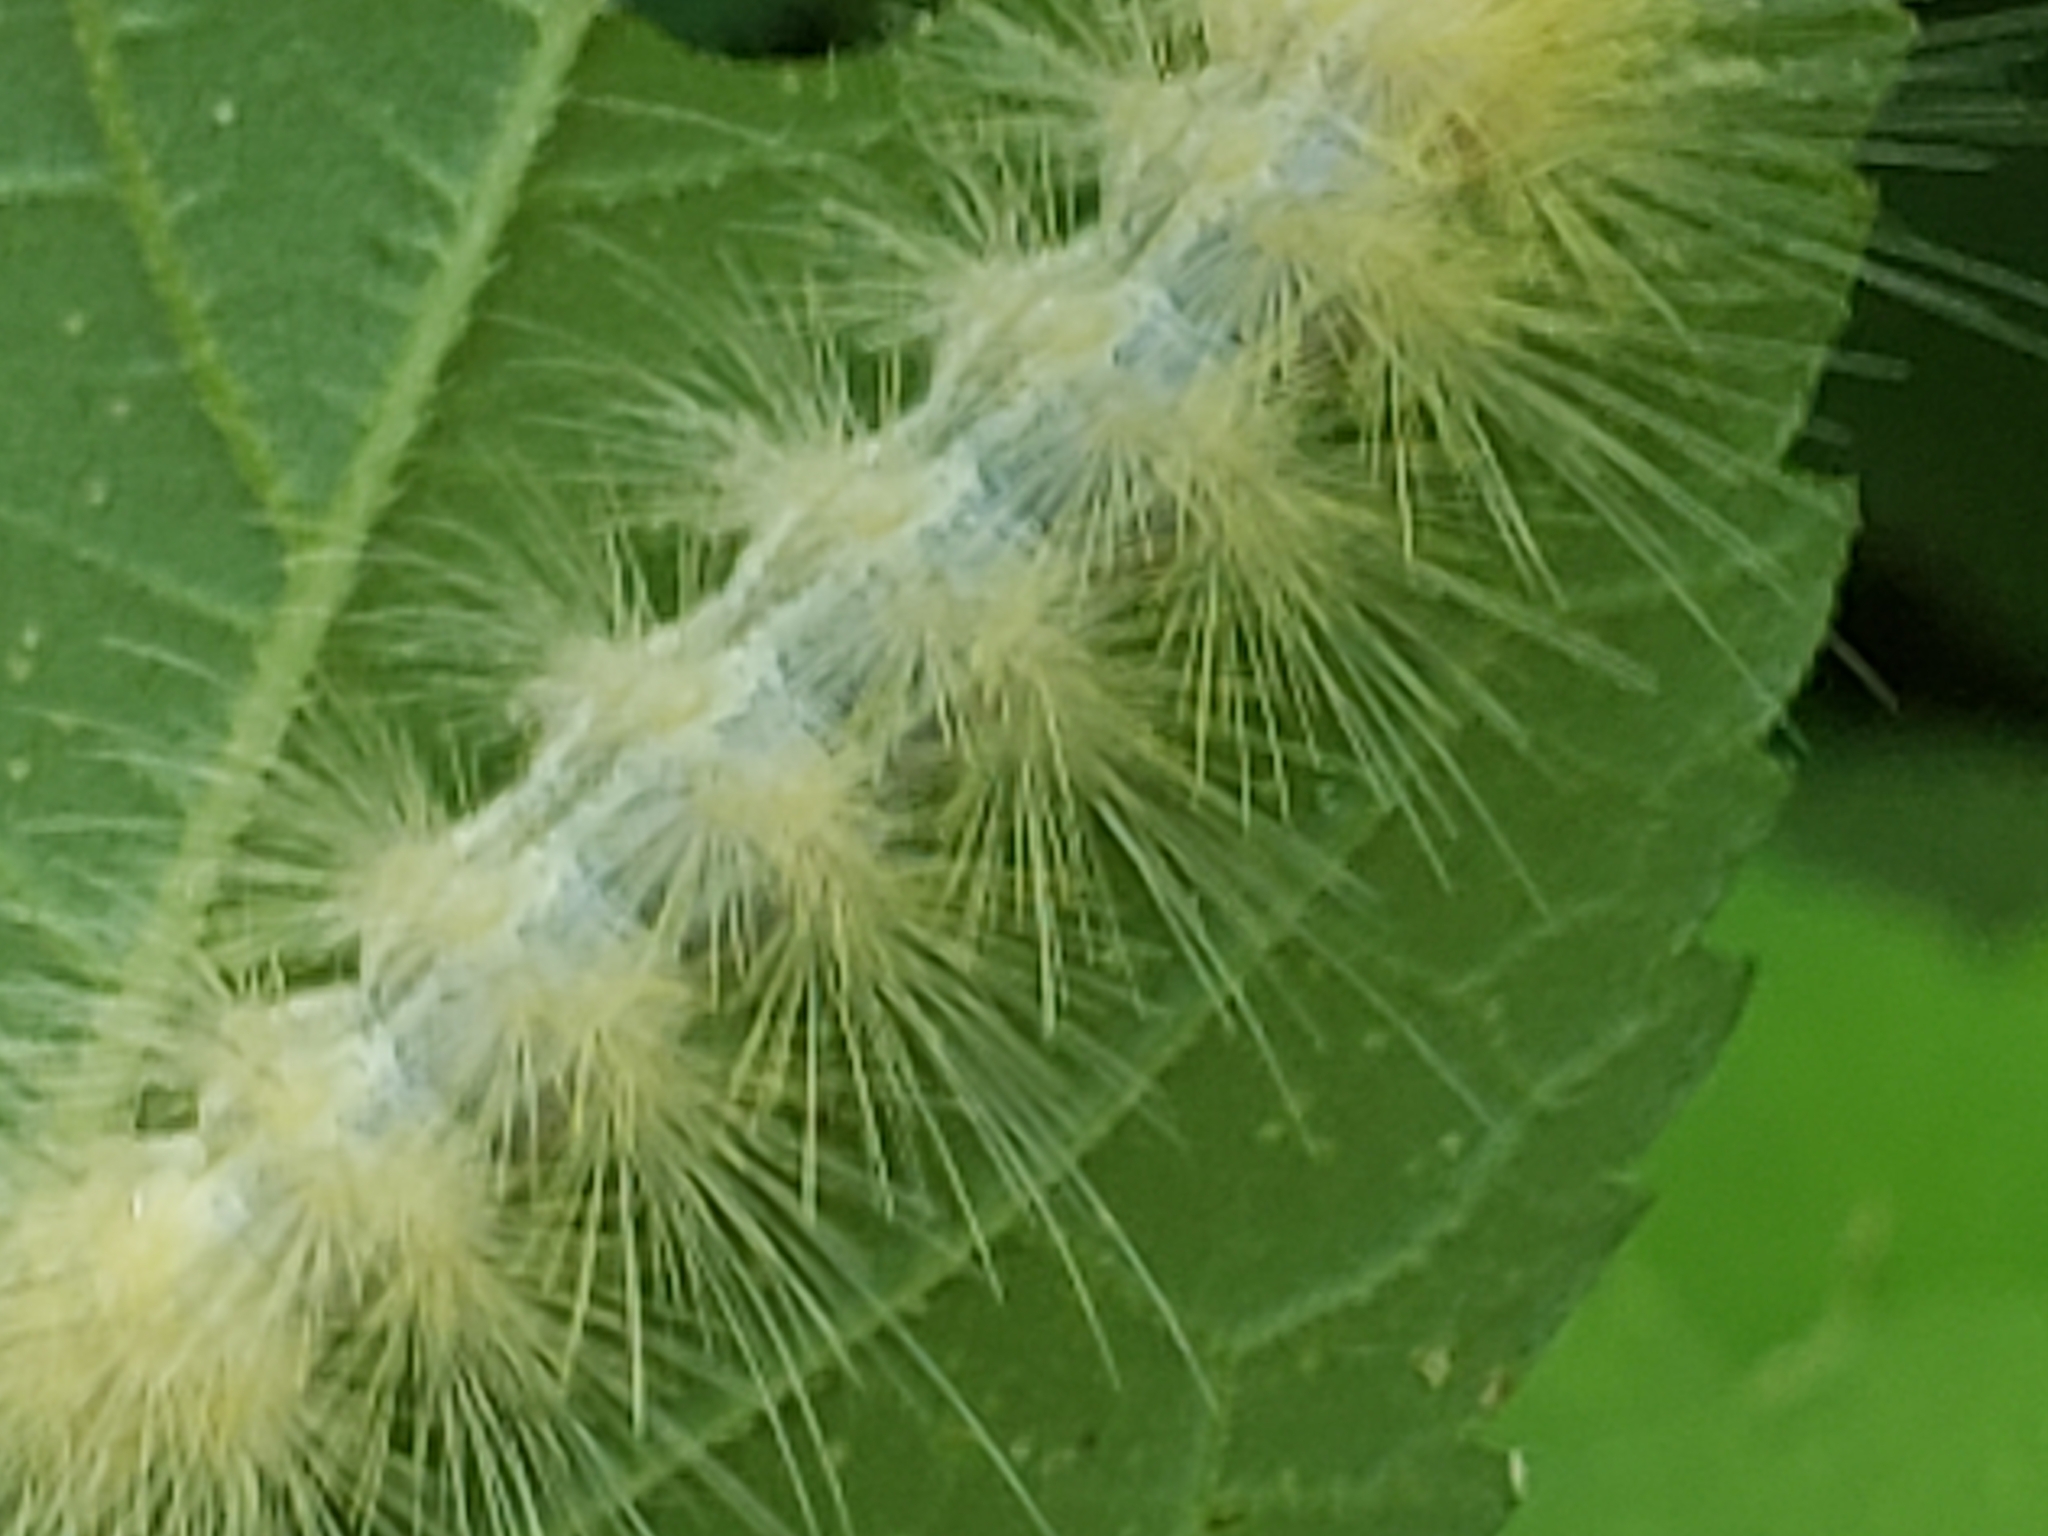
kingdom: Animalia
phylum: Arthropoda
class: Insecta
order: Lepidoptera
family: Erebidae
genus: Spilosoma
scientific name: Spilosoma virginica
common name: Virginia tiger moth
